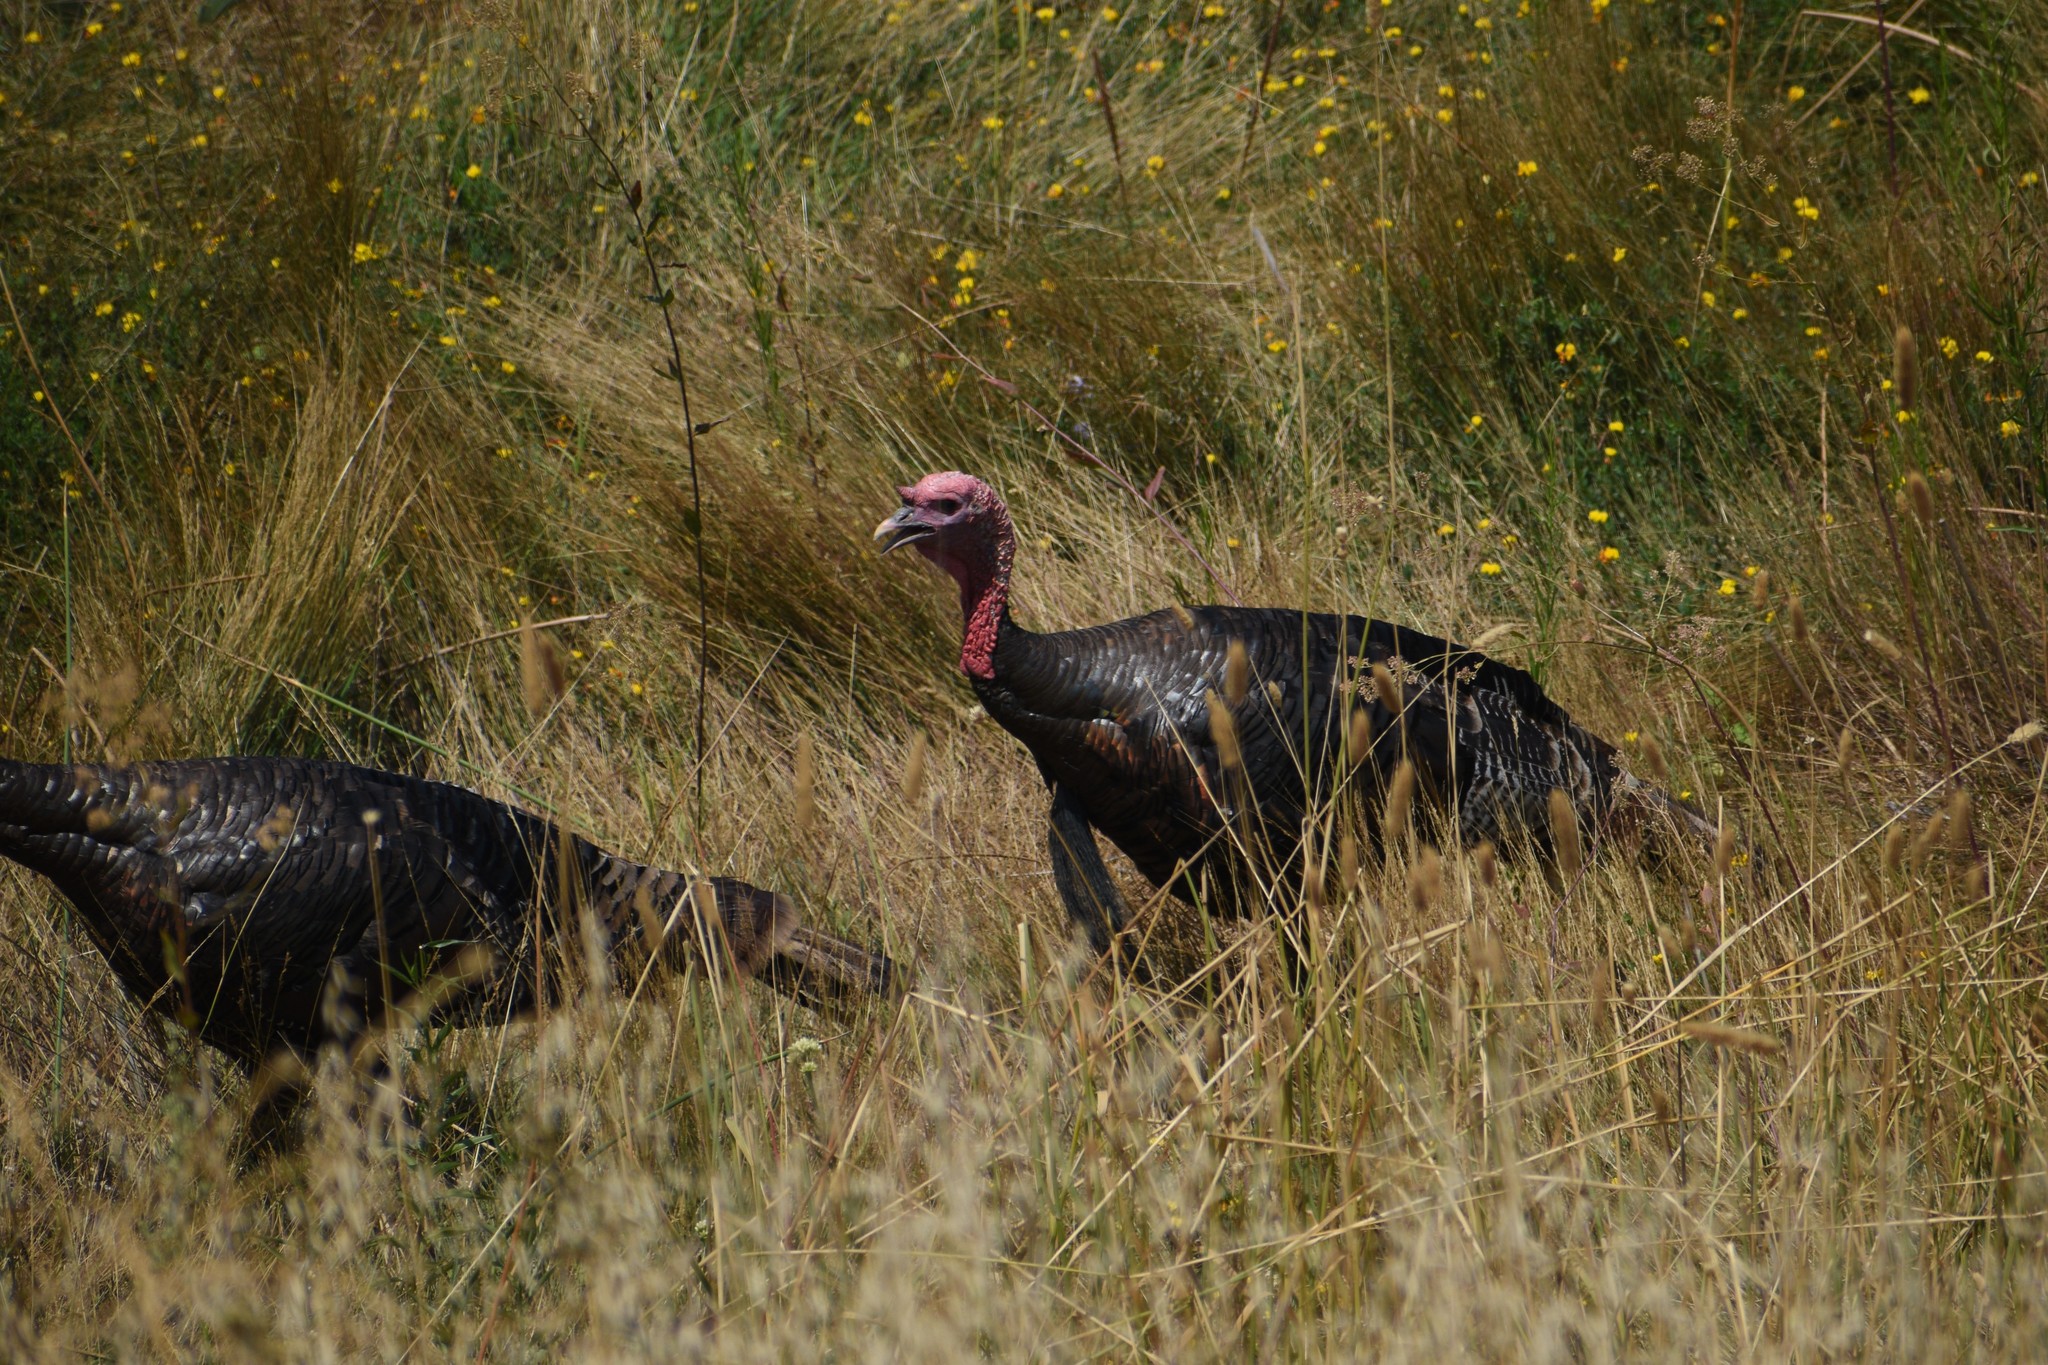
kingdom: Animalia
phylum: Chordata
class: Aves
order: Galliformes
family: Phasianidae
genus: Meleagris
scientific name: Meleagris gallopavo
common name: Wild turkey
